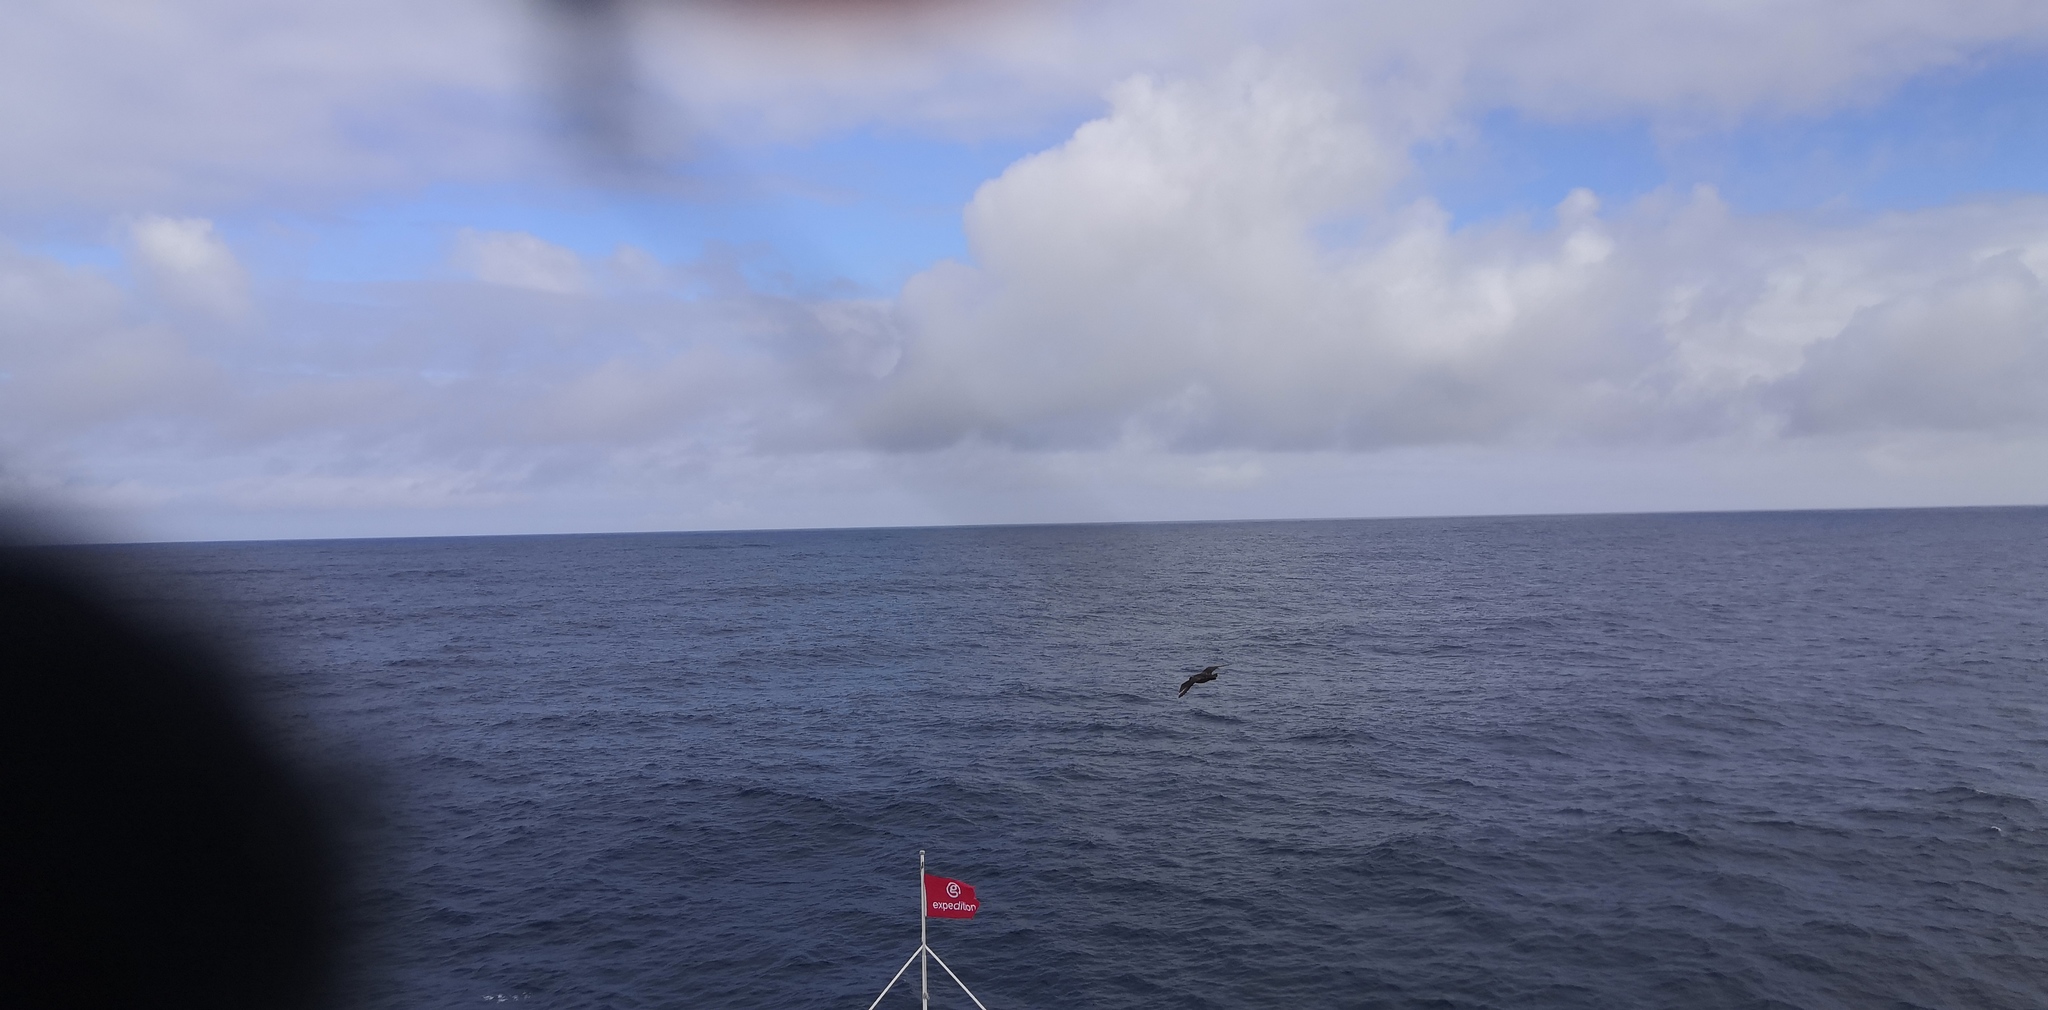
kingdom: Animalia
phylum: Chordata
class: Aves
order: Charadriiformes
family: Stercorariidae
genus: Stercorarius
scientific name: Stercorarius antarcticus
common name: Brown skua
